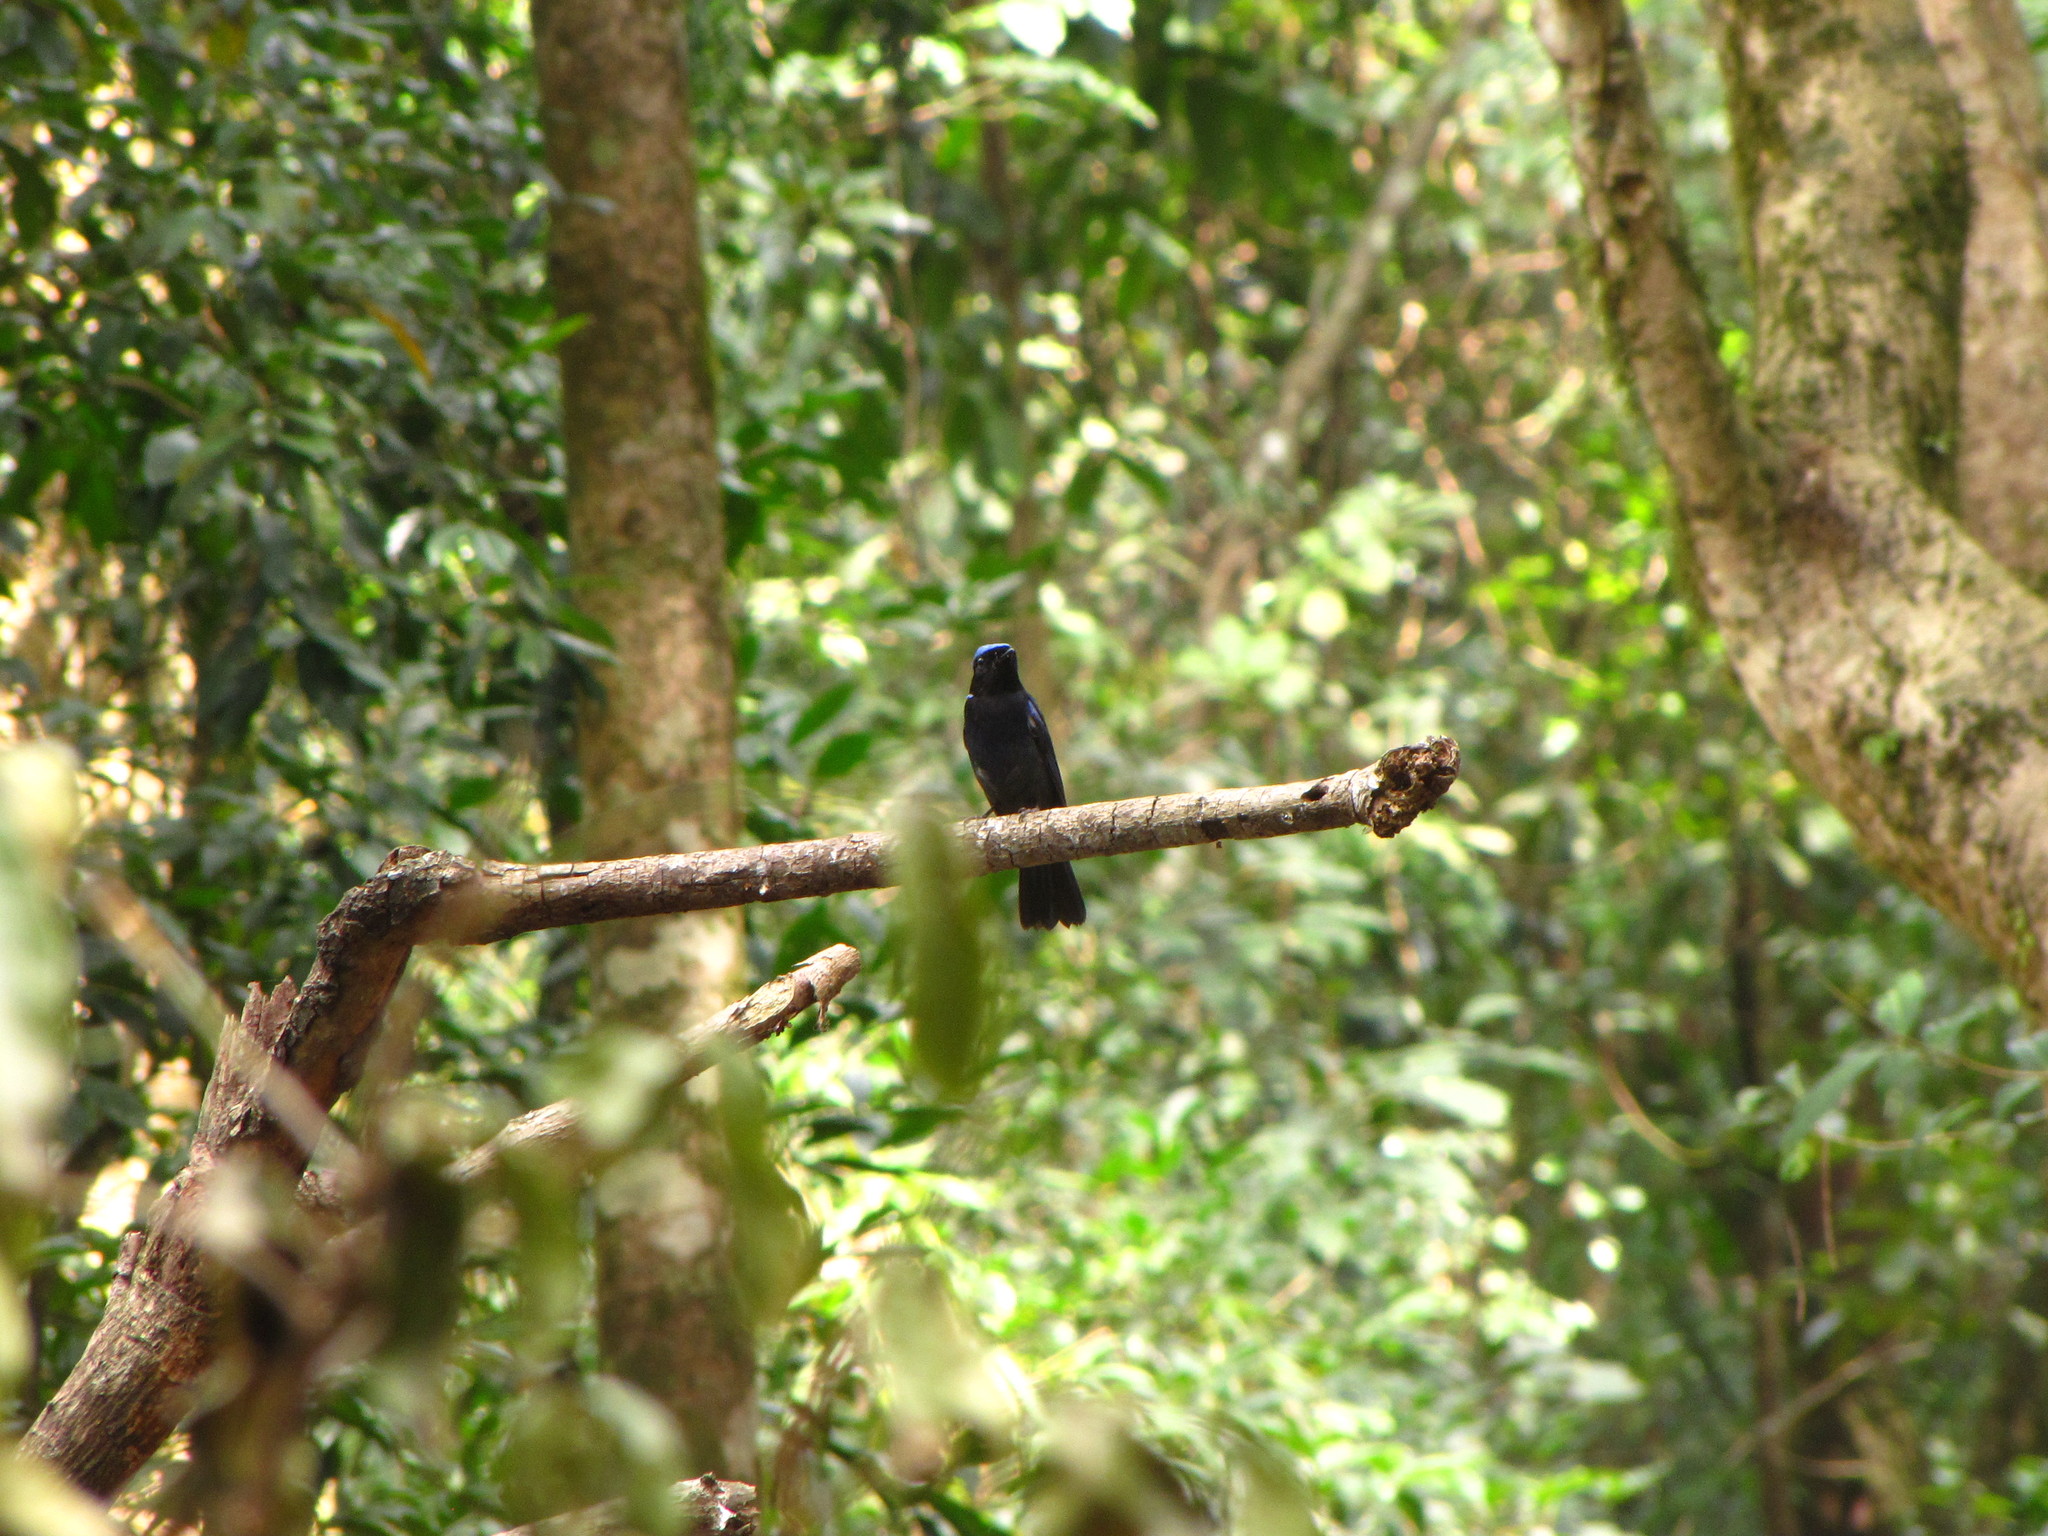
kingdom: Animalia
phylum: Chordata
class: Aves
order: Passeriformes
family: Muscicapidae
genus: Niltava
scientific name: Niltava grandis
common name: Large niltava
